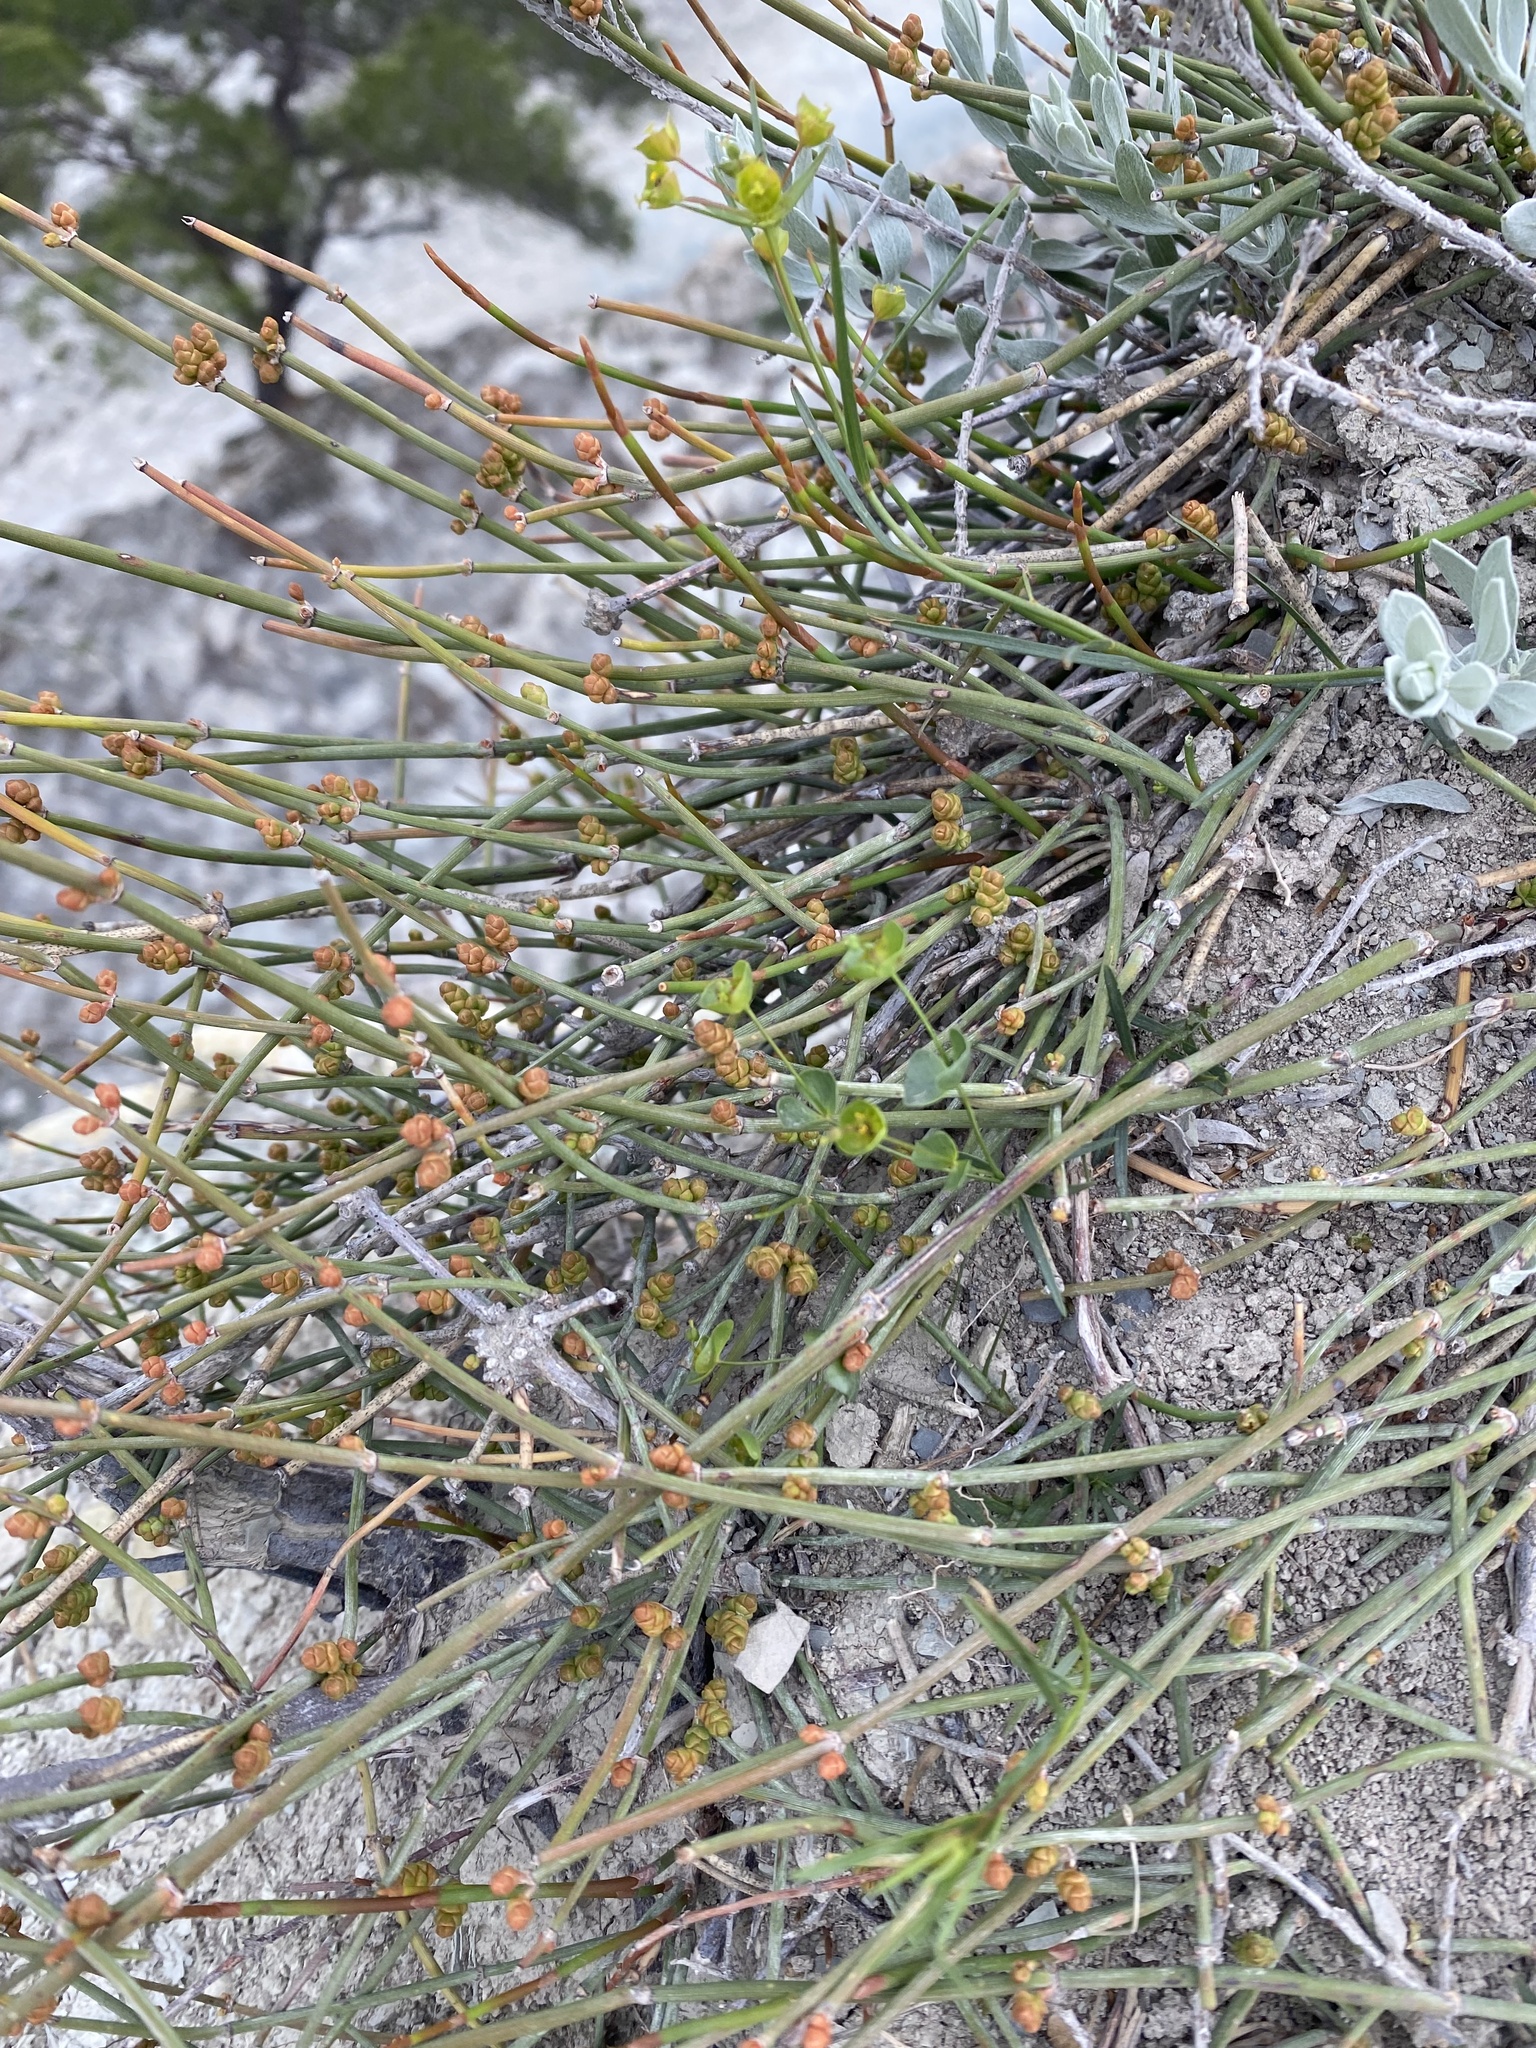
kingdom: Plantae
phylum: Tracheophyta
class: Gnetopsida
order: Ephedrales
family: Ephedraceae
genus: Ephedra
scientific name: Ephedra distachya
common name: Sea grape
